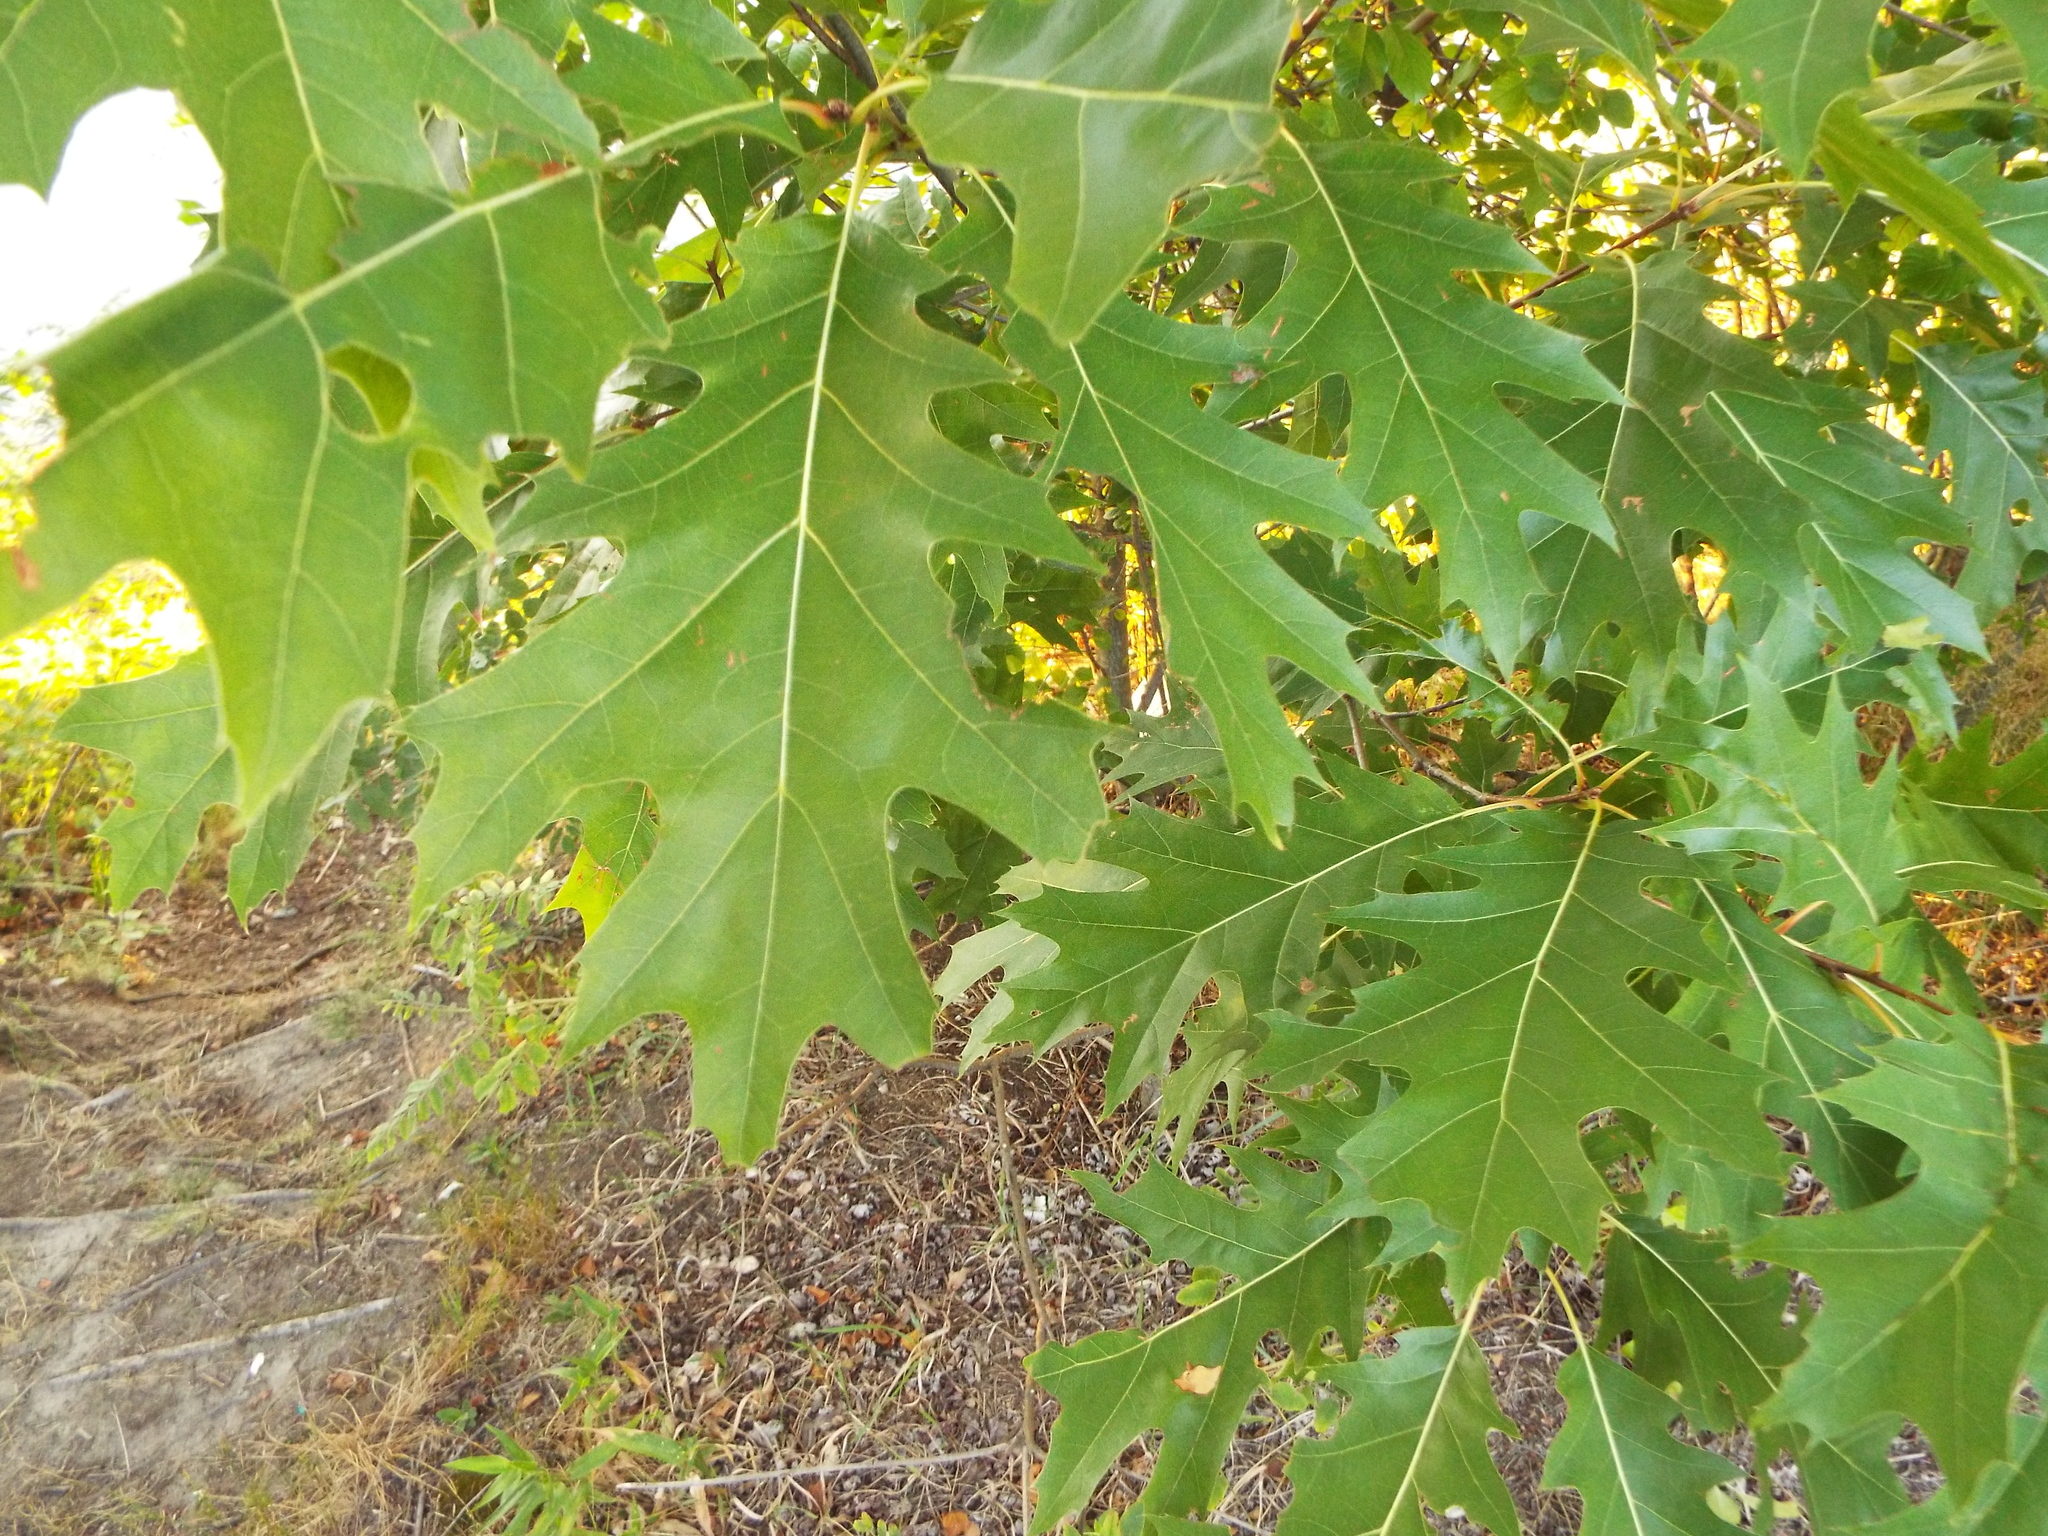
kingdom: Plantae
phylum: Tracheophyta
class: Magnoliopsida
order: Fagales
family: Fagaceae
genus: Quercus
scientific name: Quercus rubra
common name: Red oak
